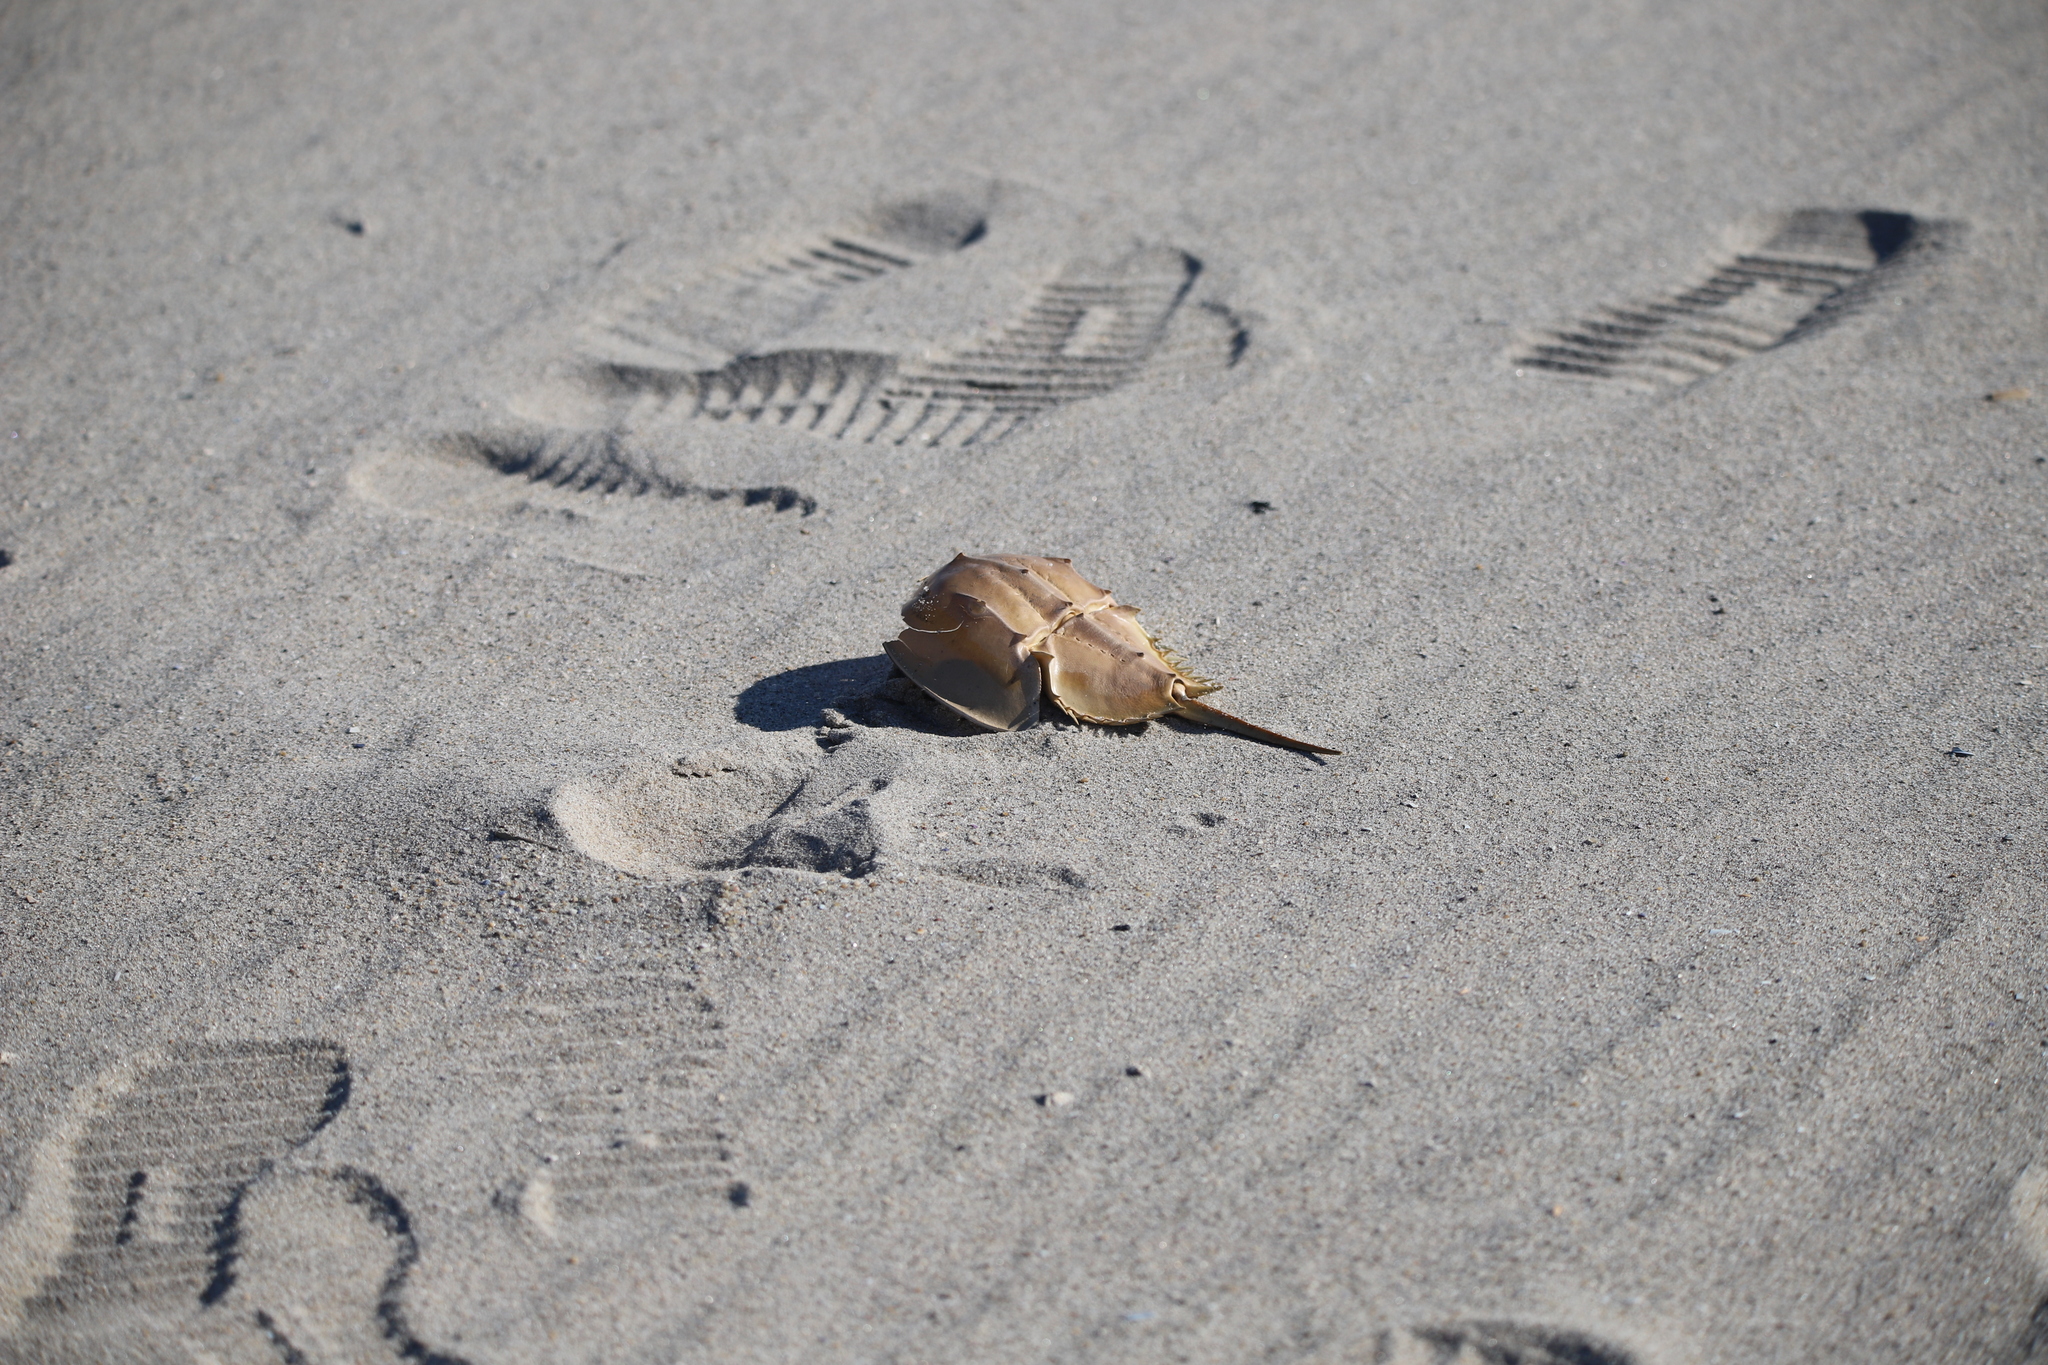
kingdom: Animalia
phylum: Arthropoda
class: Merostomata
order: Xiphosurida
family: Limulidae
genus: Limulus
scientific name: Limulus polyphemus
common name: Horseshoe crab
